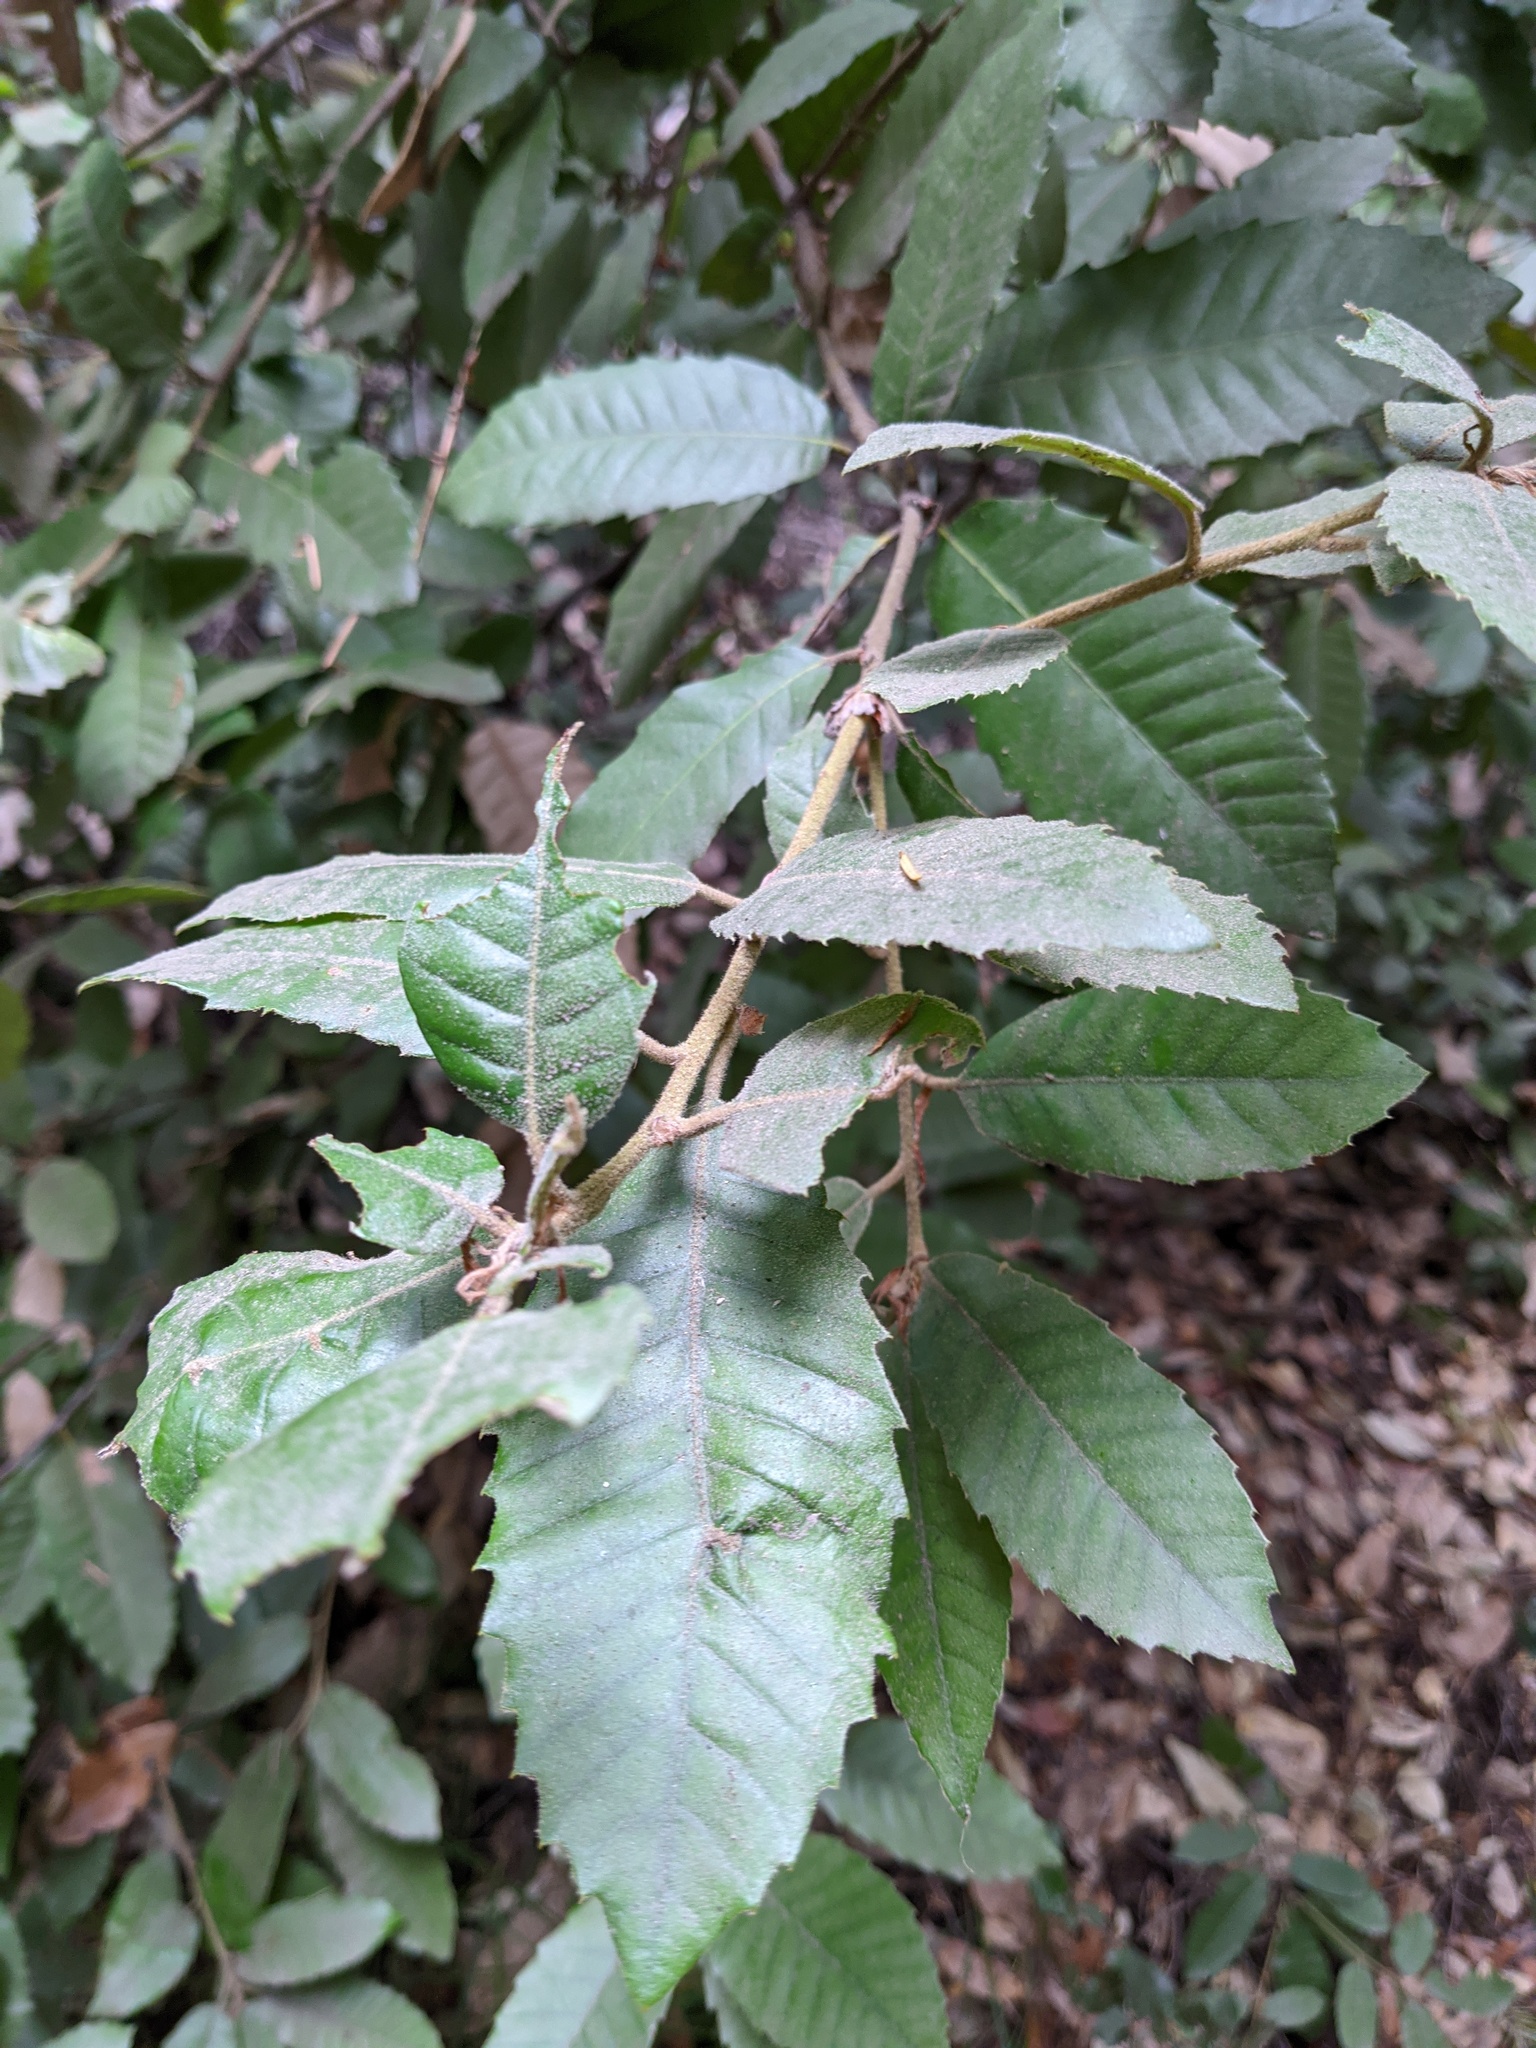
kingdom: Plantae
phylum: Tracheophyta
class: Magnoliopsida
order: Fagales
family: Fagaceae
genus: Notholithocarpus
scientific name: Notholithocarpus densiflorus
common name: Tan bark oak
